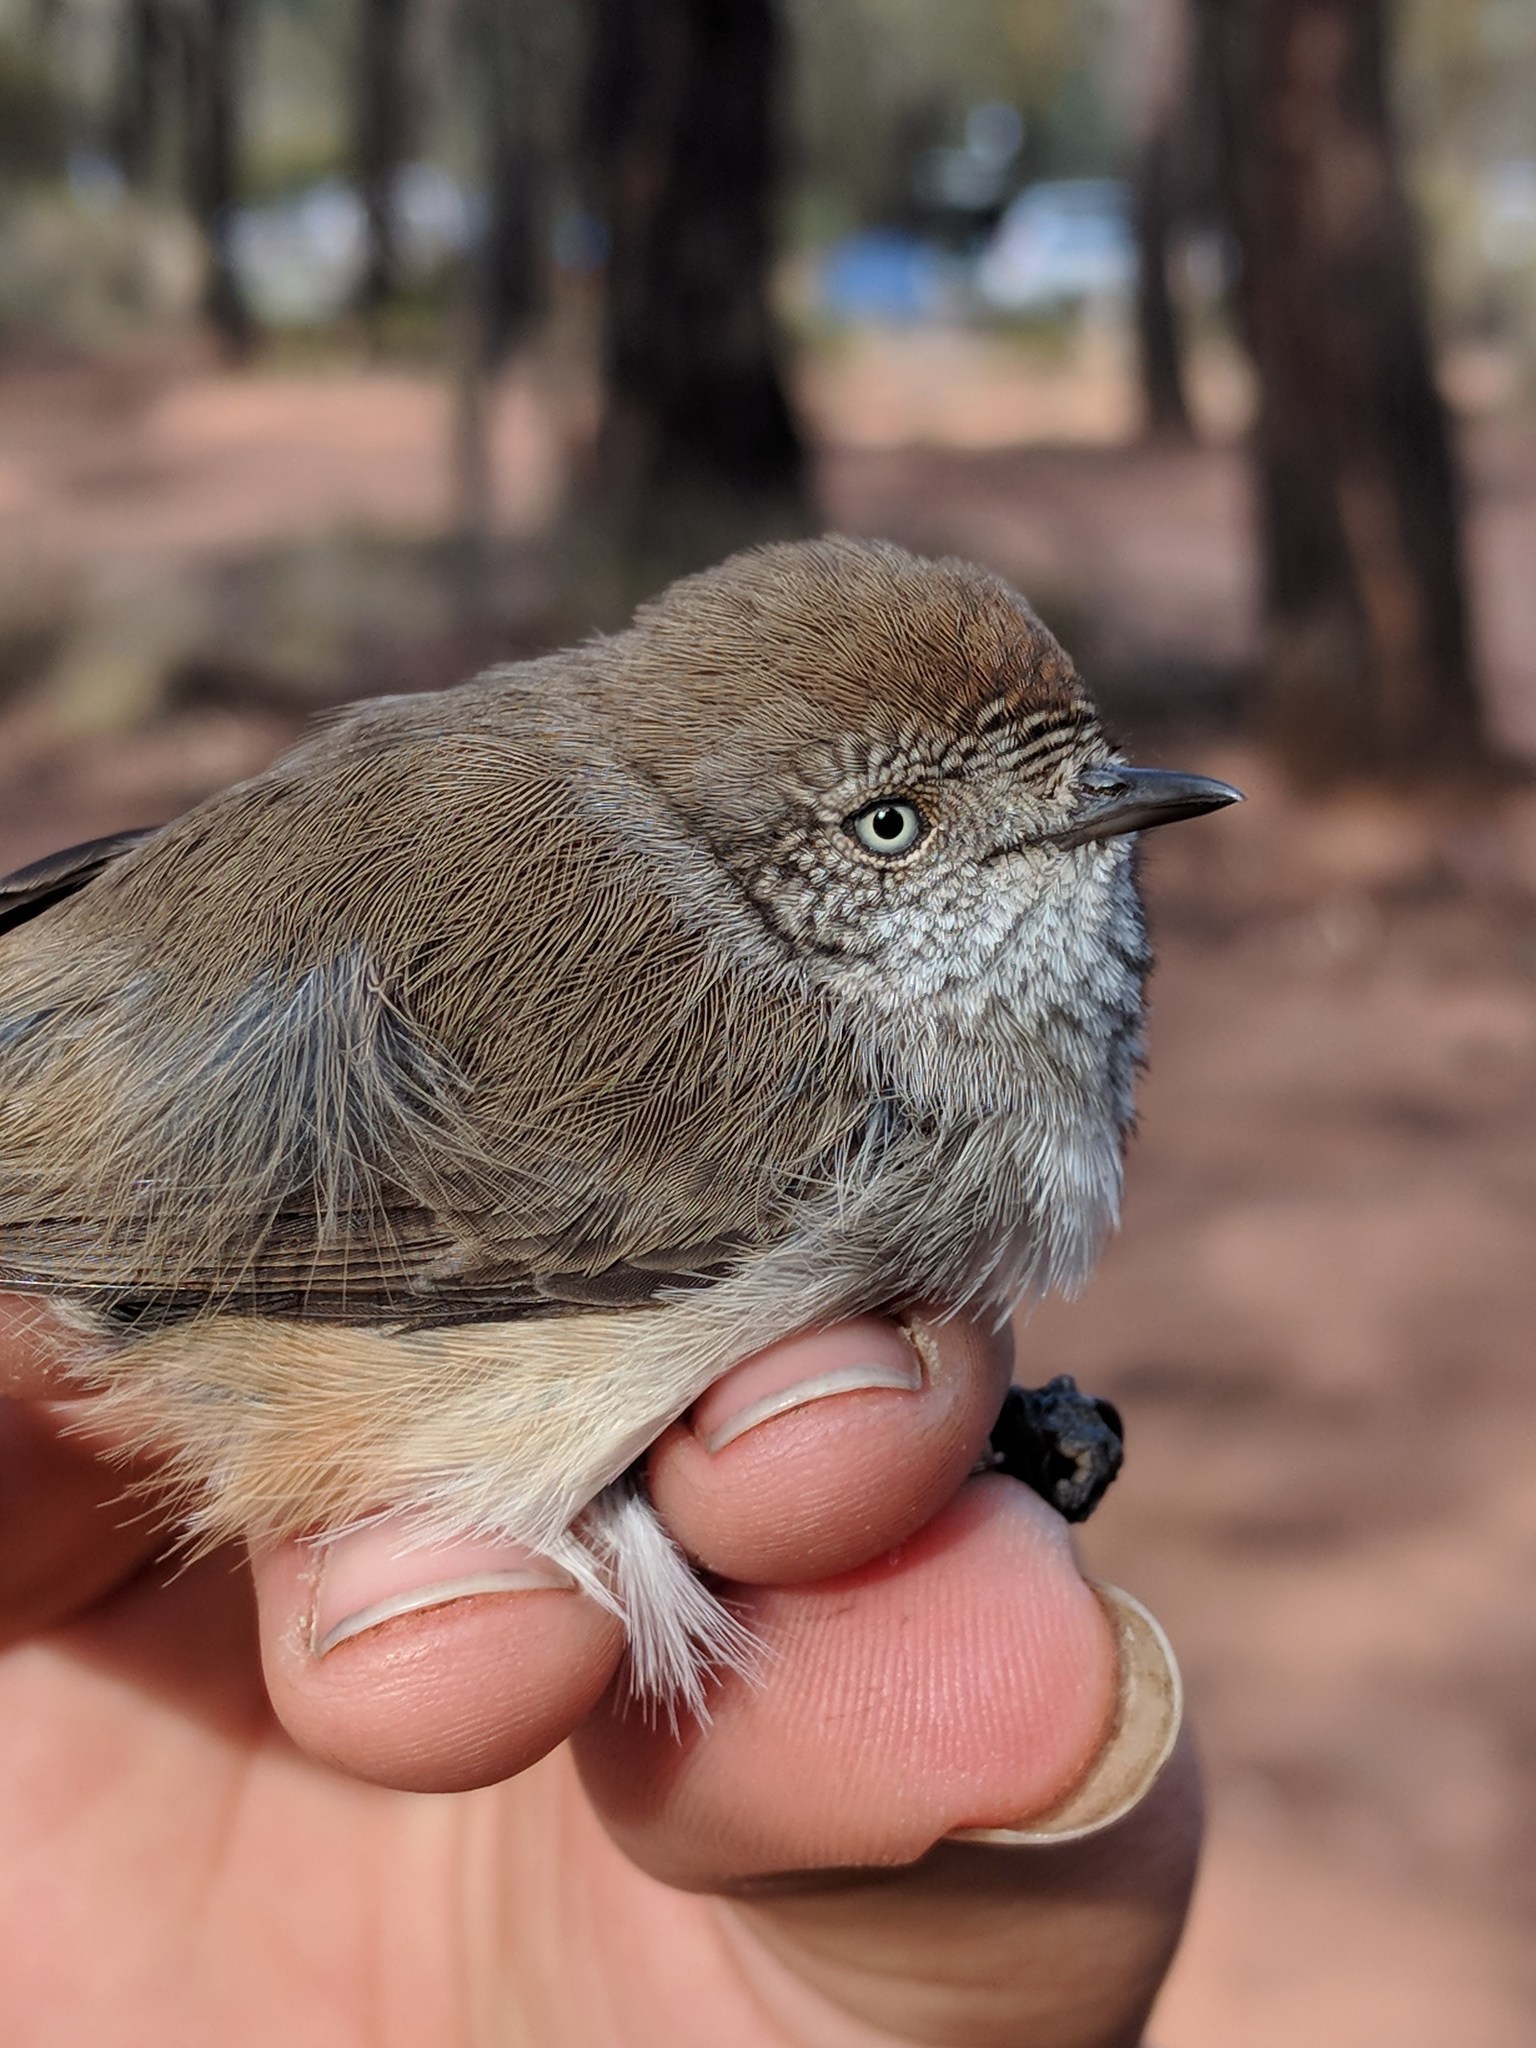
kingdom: Animalia
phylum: Chordata
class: Aves
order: Passeriformes
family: Acanthizidae
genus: Acanthiza
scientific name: Acanthiza uropygialis
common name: Chestnut-rumped thornbill
